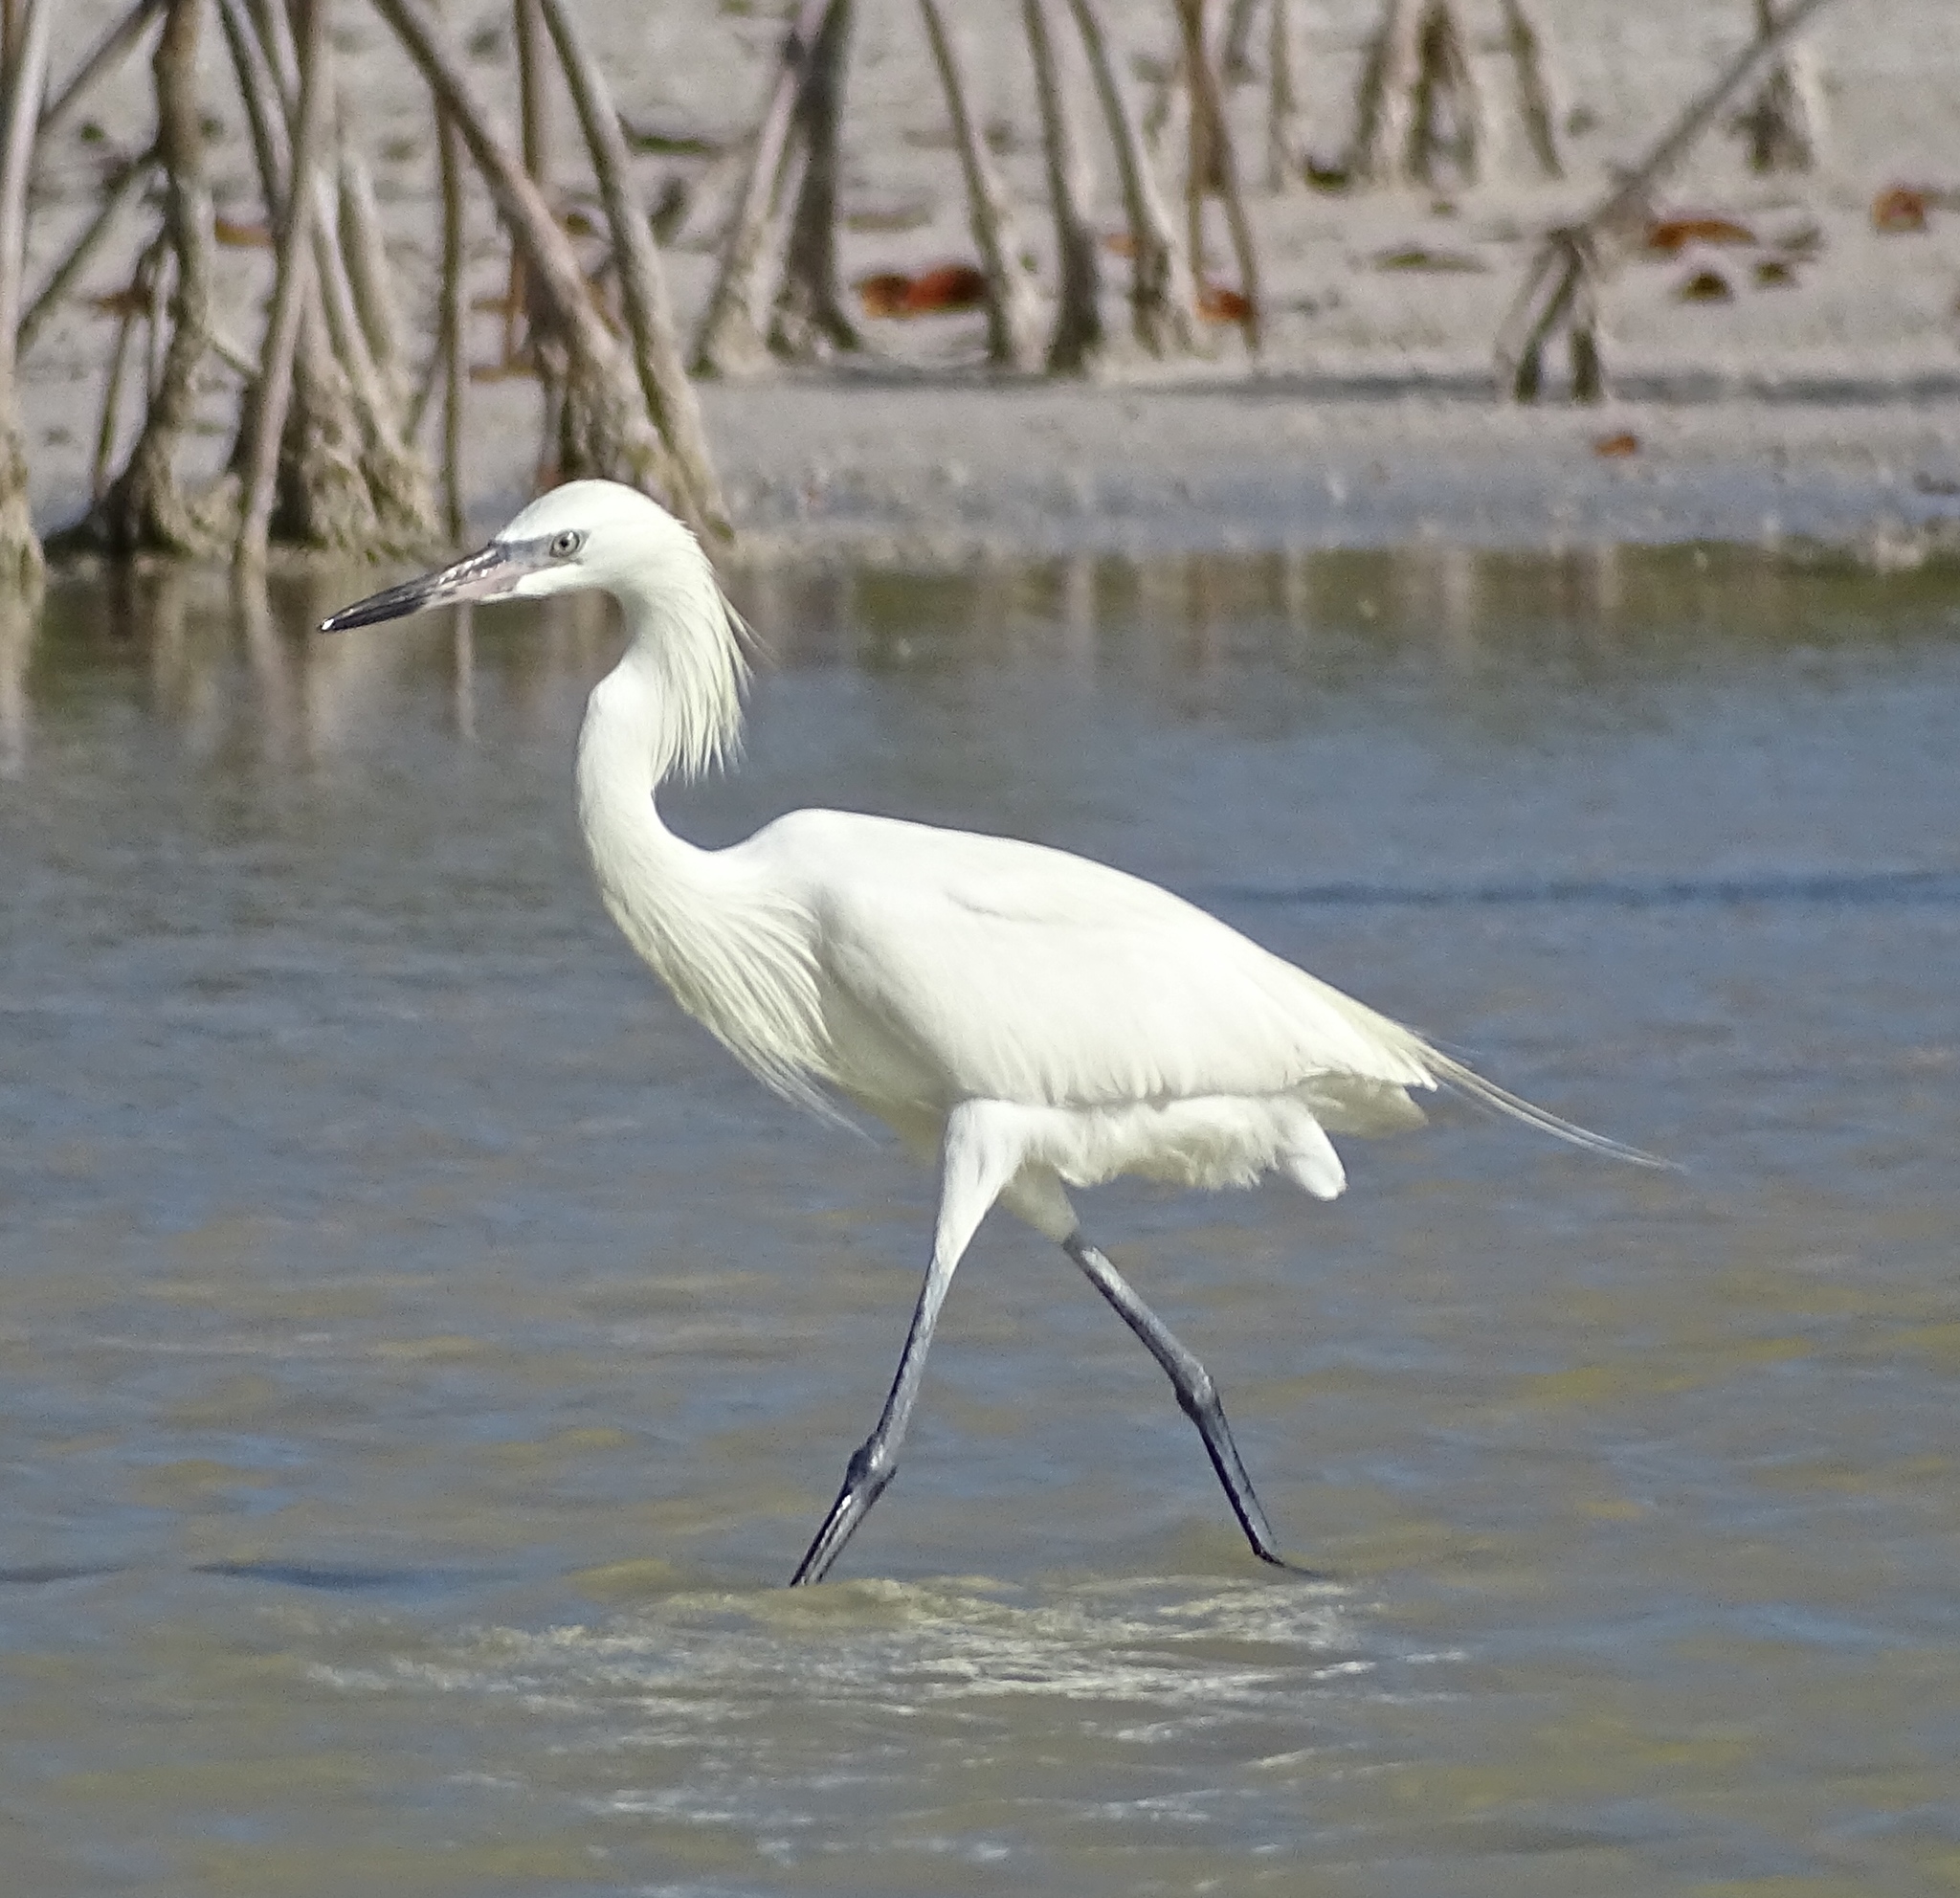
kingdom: Animalia
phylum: Chordata
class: Aves
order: Pelecaniformes
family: Ardeidae
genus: Egretta
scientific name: Egretta rufescens
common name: Reddish egret
